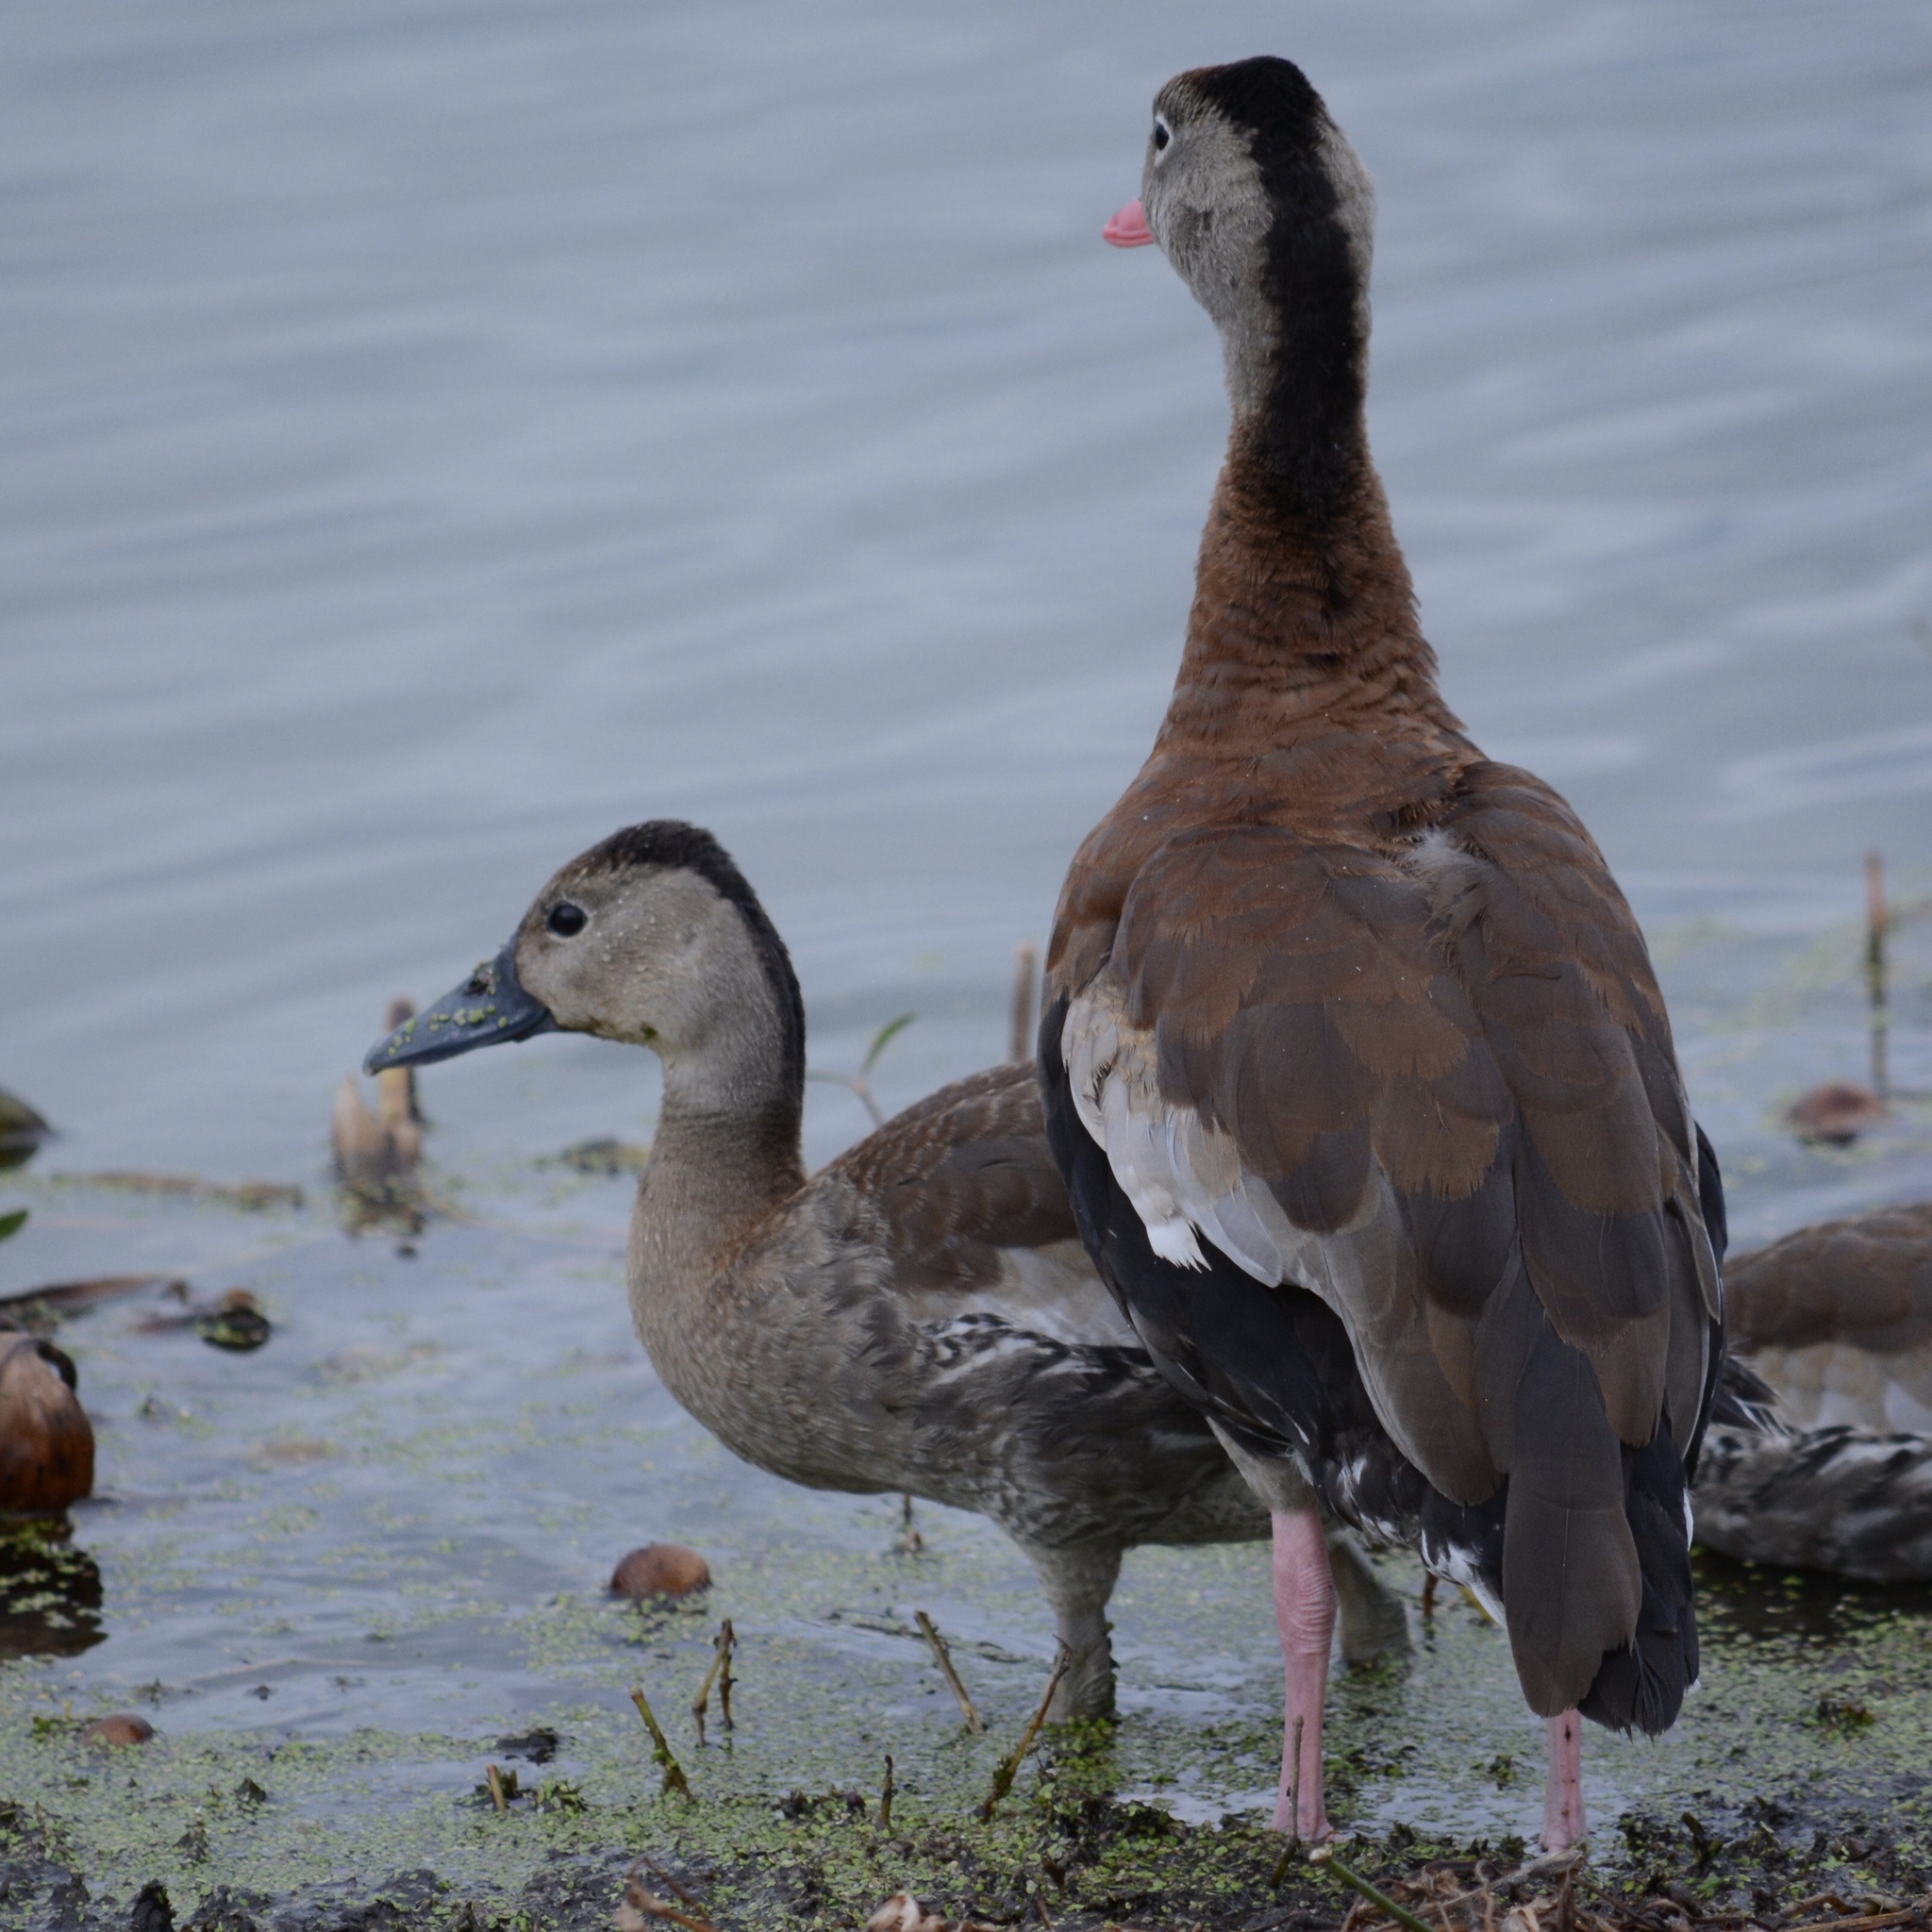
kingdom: Animalia
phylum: Chordata
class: Aves
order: Anseriformes
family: Anatidae
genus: Dendrocygna
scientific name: Dendrocygna autumnalis
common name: Black-bellied whistling duck
